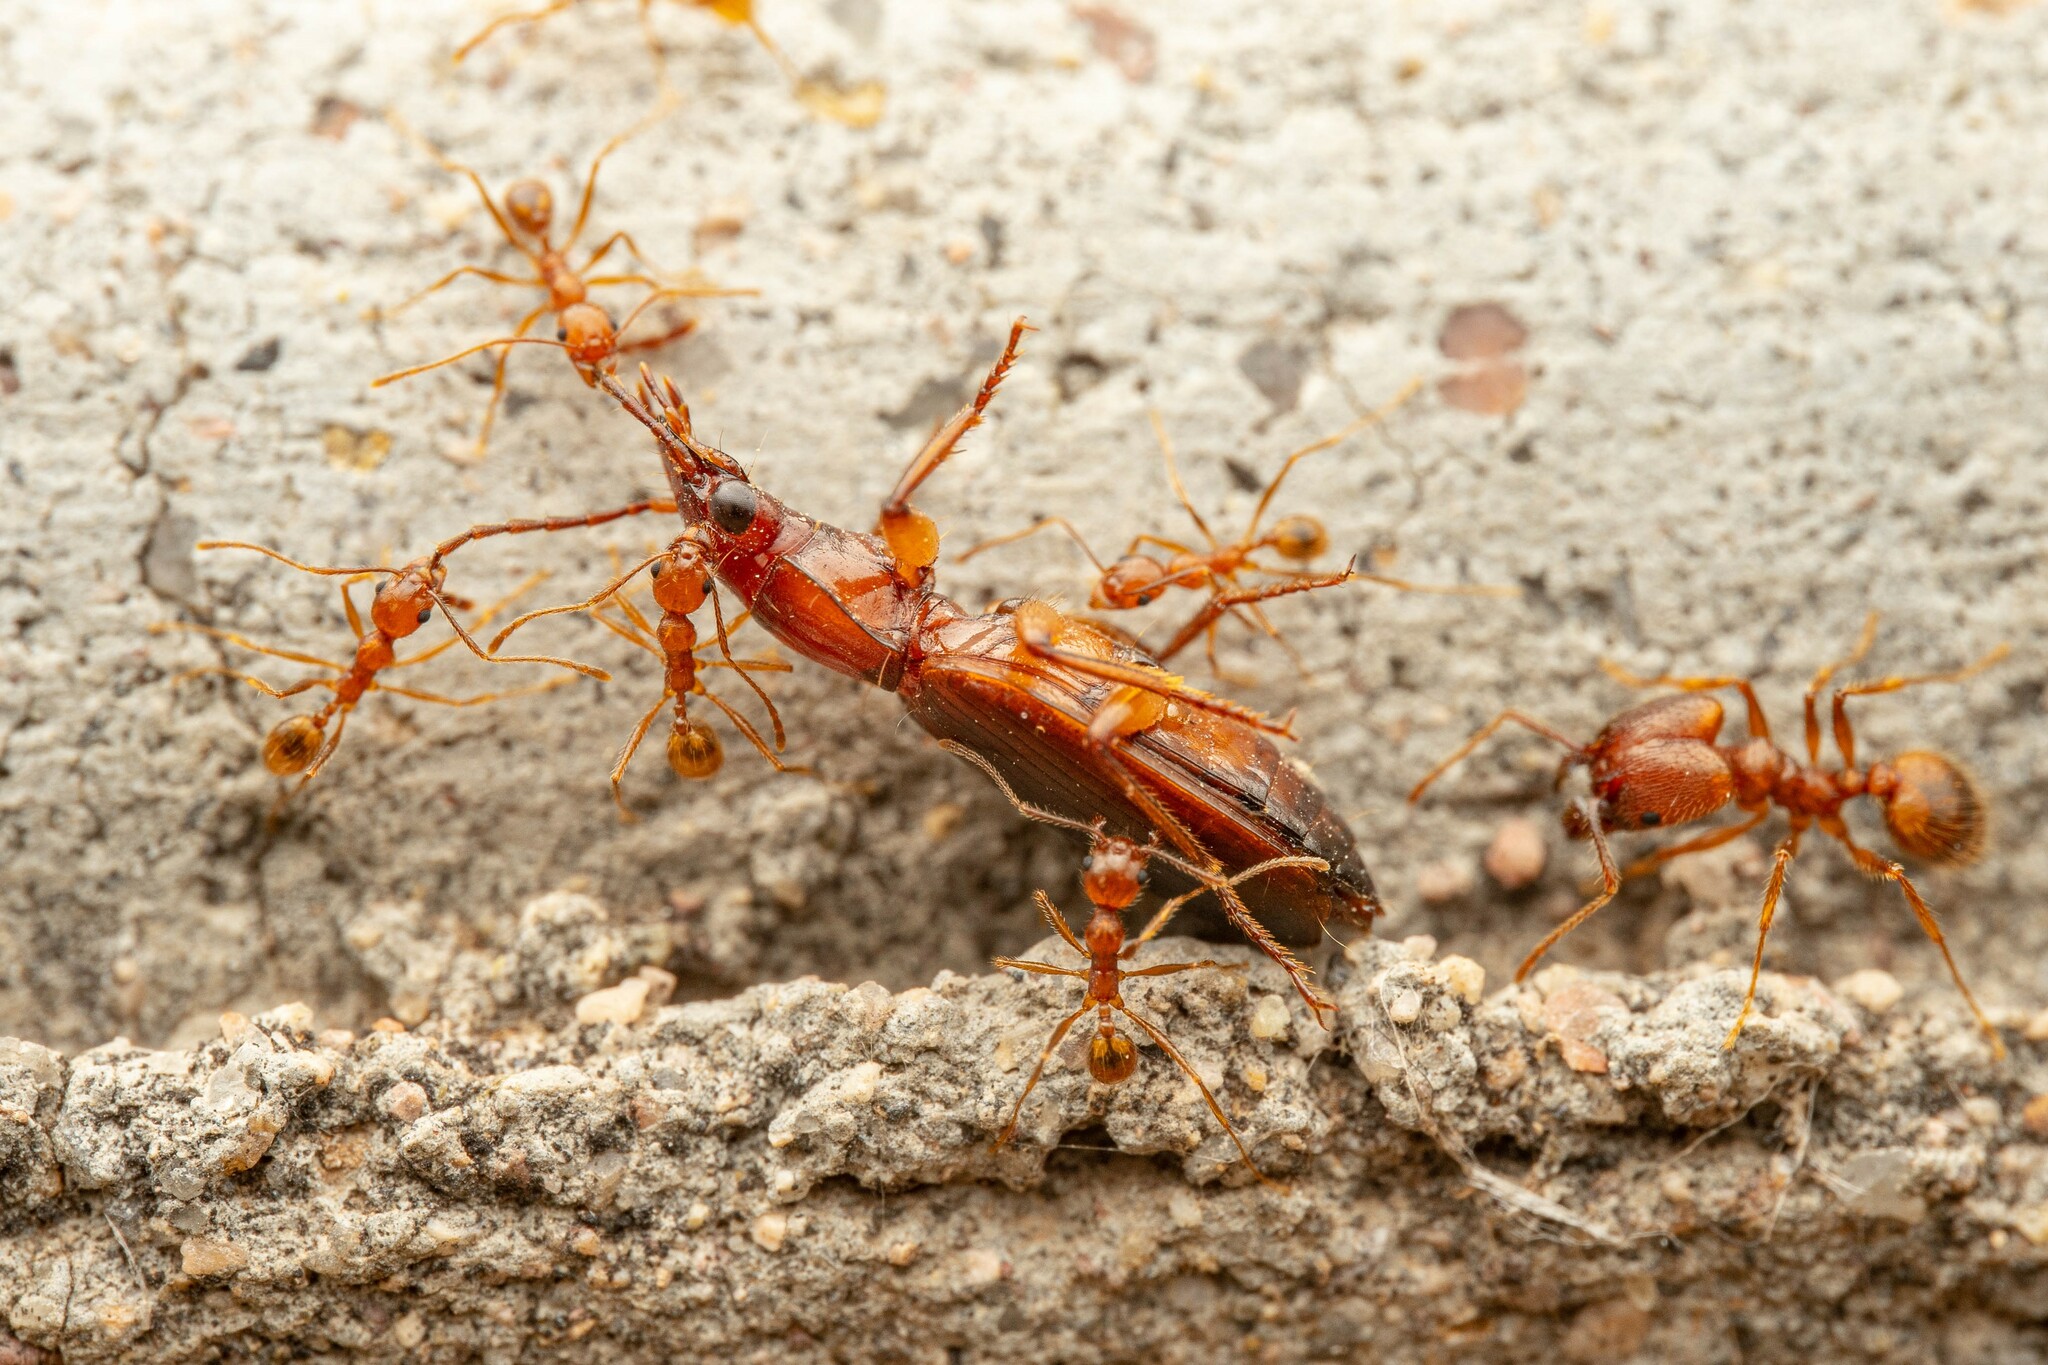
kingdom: Animalia
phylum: Arthropoda
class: Insecta
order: Hymenoptera
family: Formicidae
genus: Pheidole
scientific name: Pheidole hyatti
